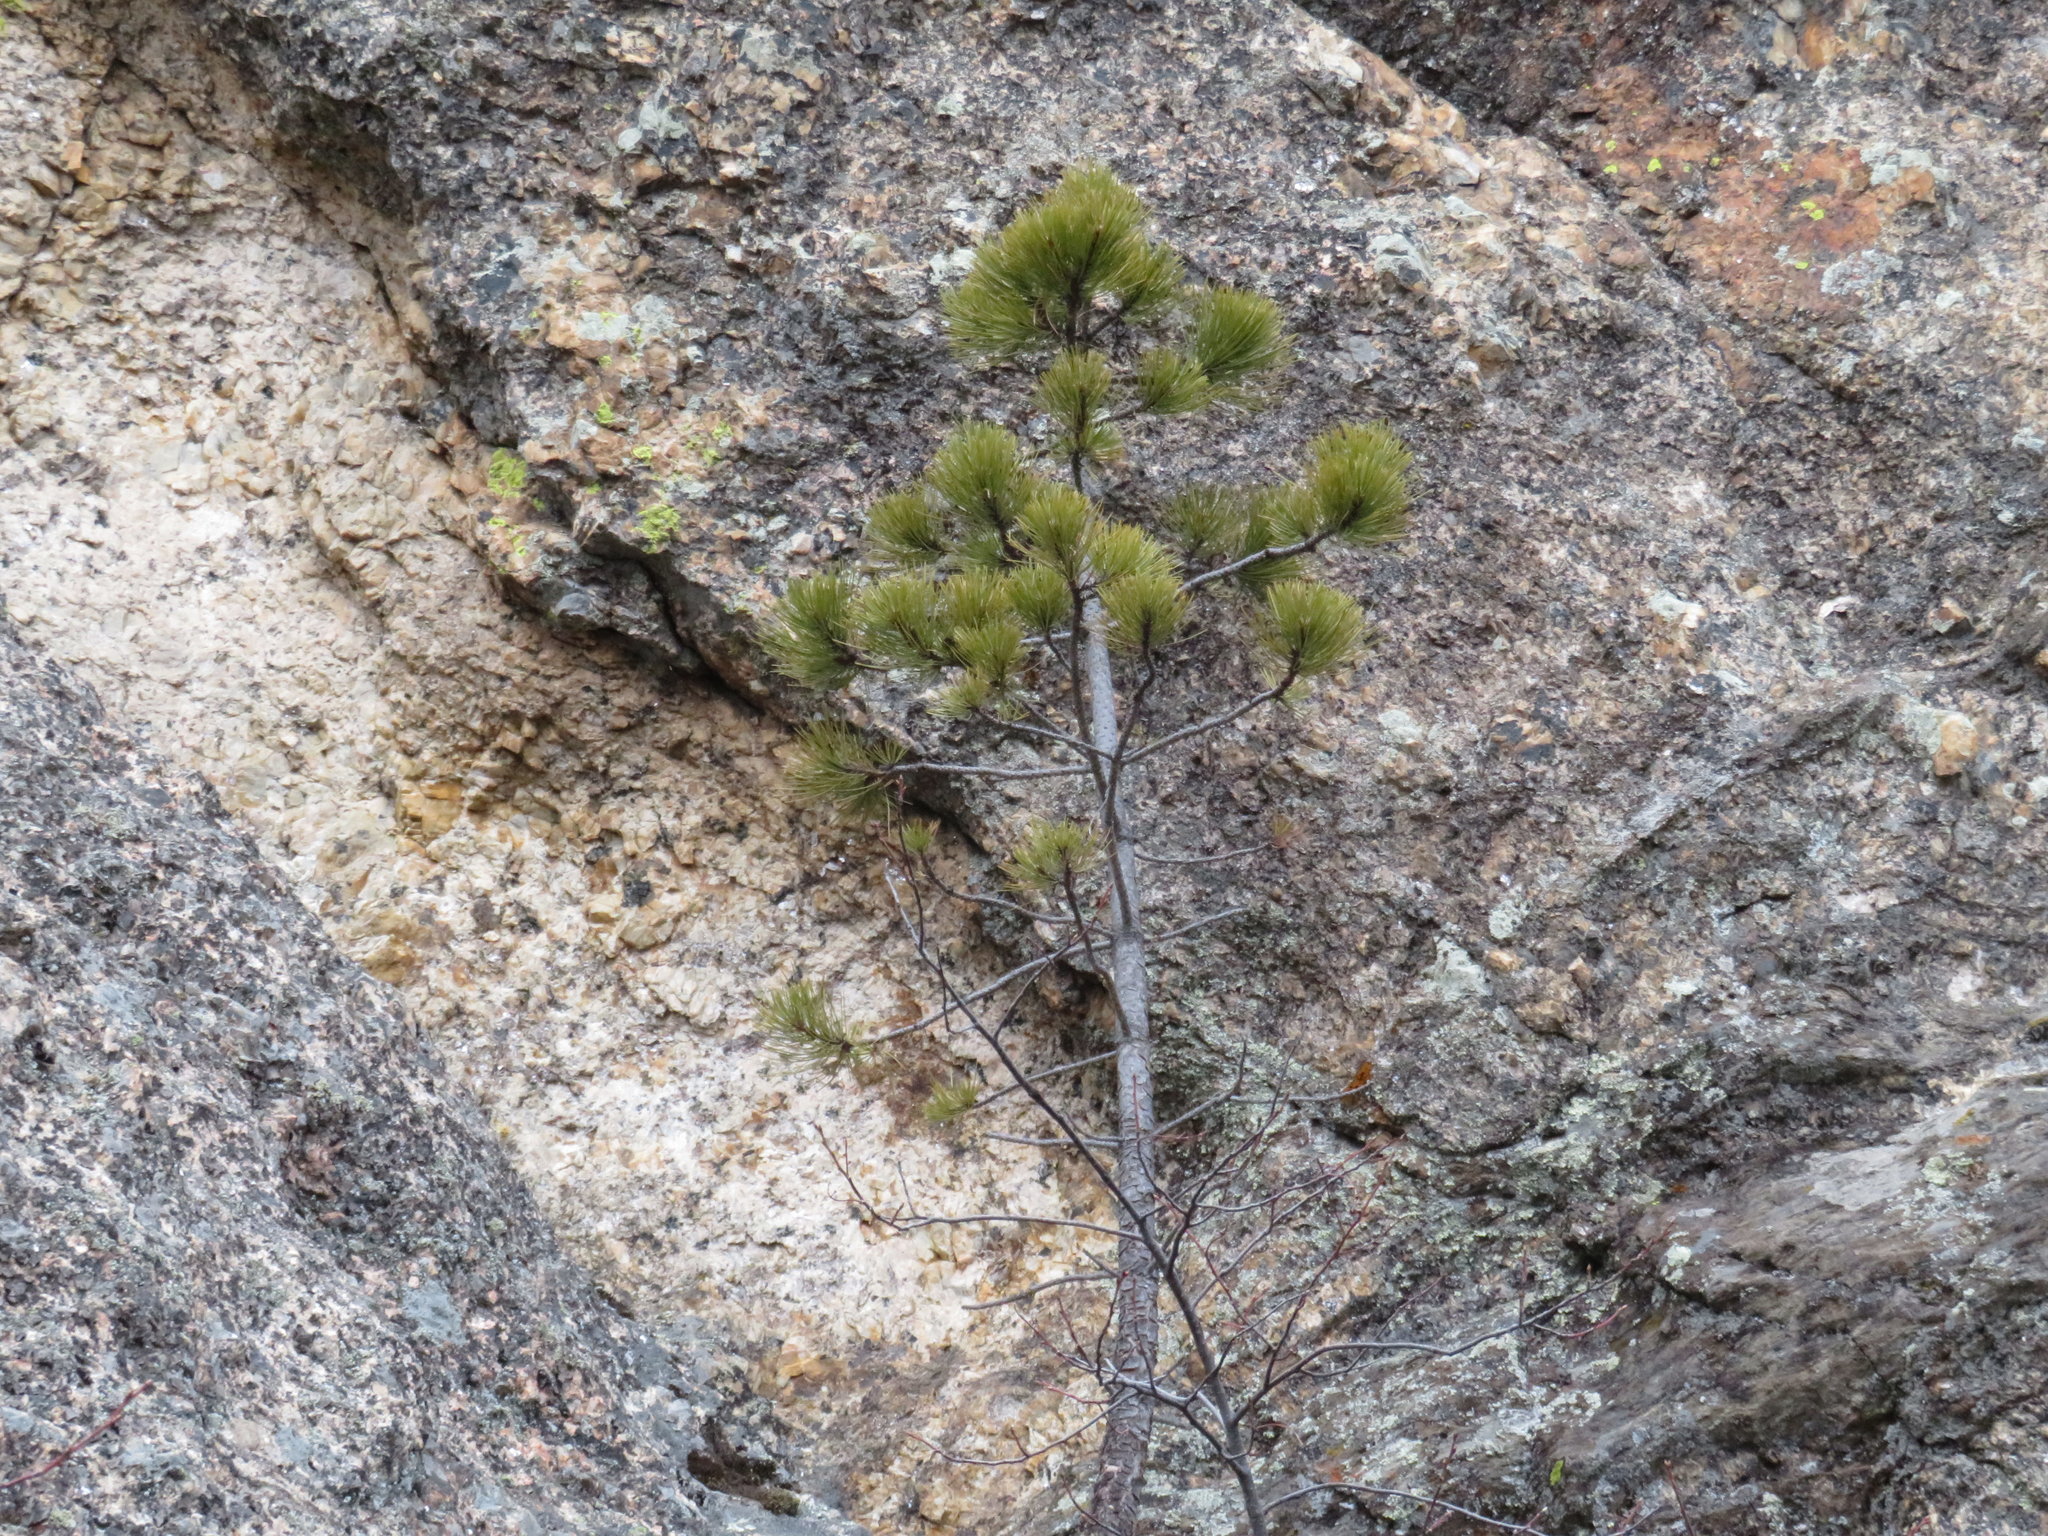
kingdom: Plantae
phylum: Tracheophyta
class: Pinopsida
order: Pinales
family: Pinaceae
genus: Pinus
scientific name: Pinus contorta
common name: Lodgepole pine
